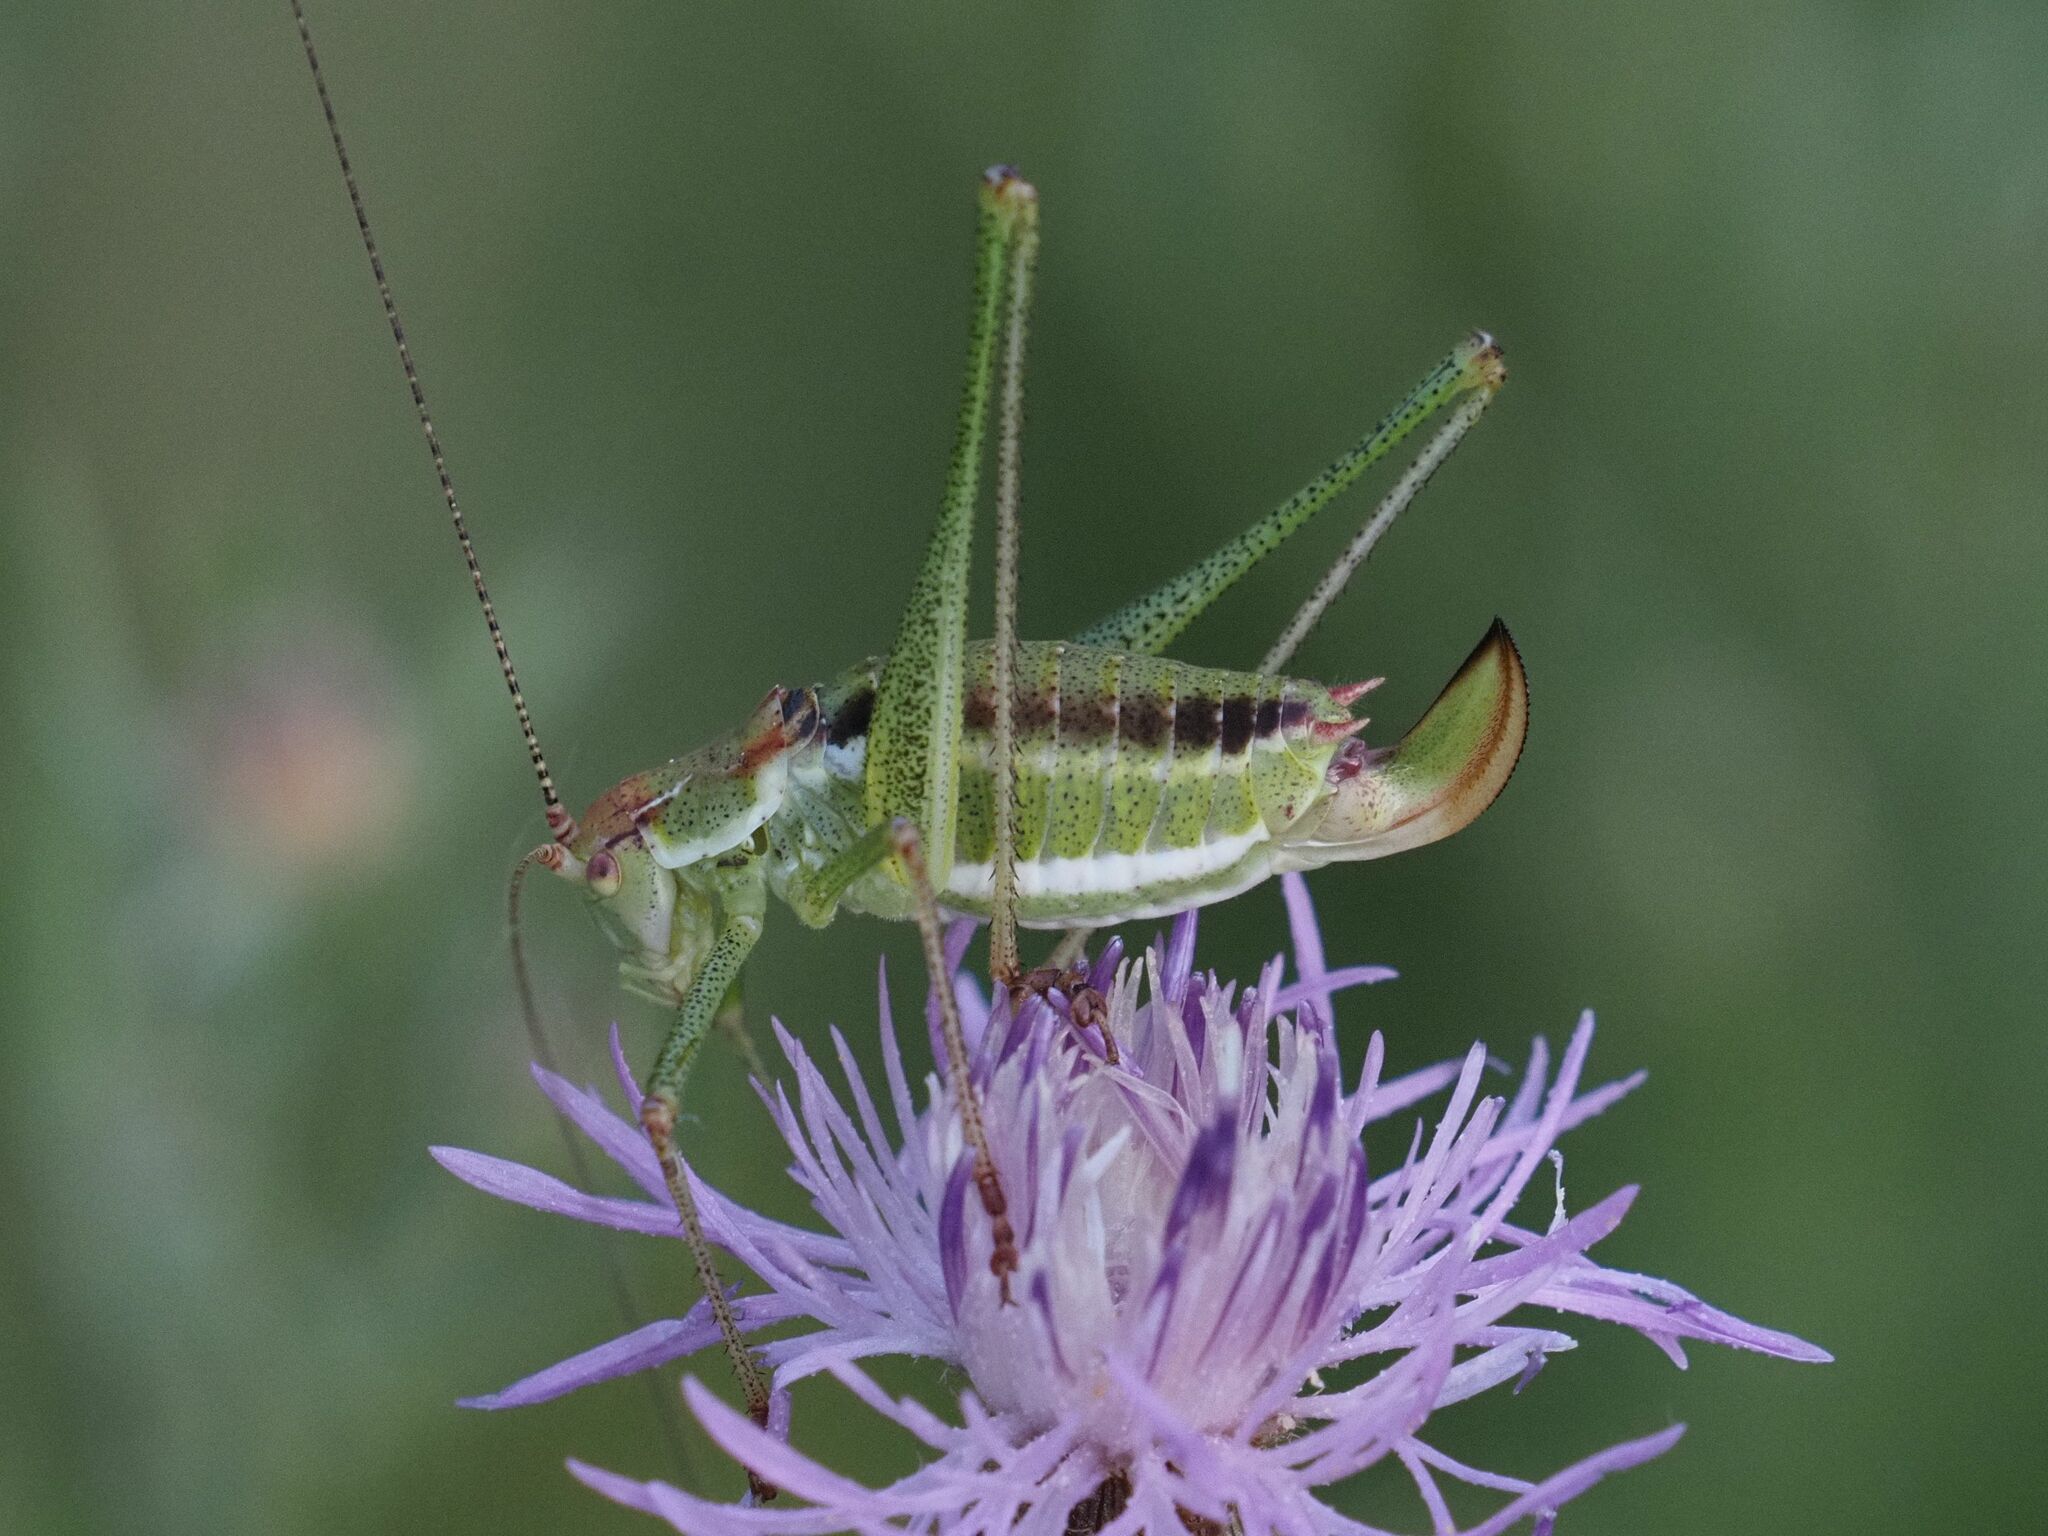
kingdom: Animalia
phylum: Arthropoda
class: Insecta
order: Orthoptera
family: Tettigoniidae
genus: Leptophyes
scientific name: Leptophyes albovittata
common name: Striped bush-cricket
